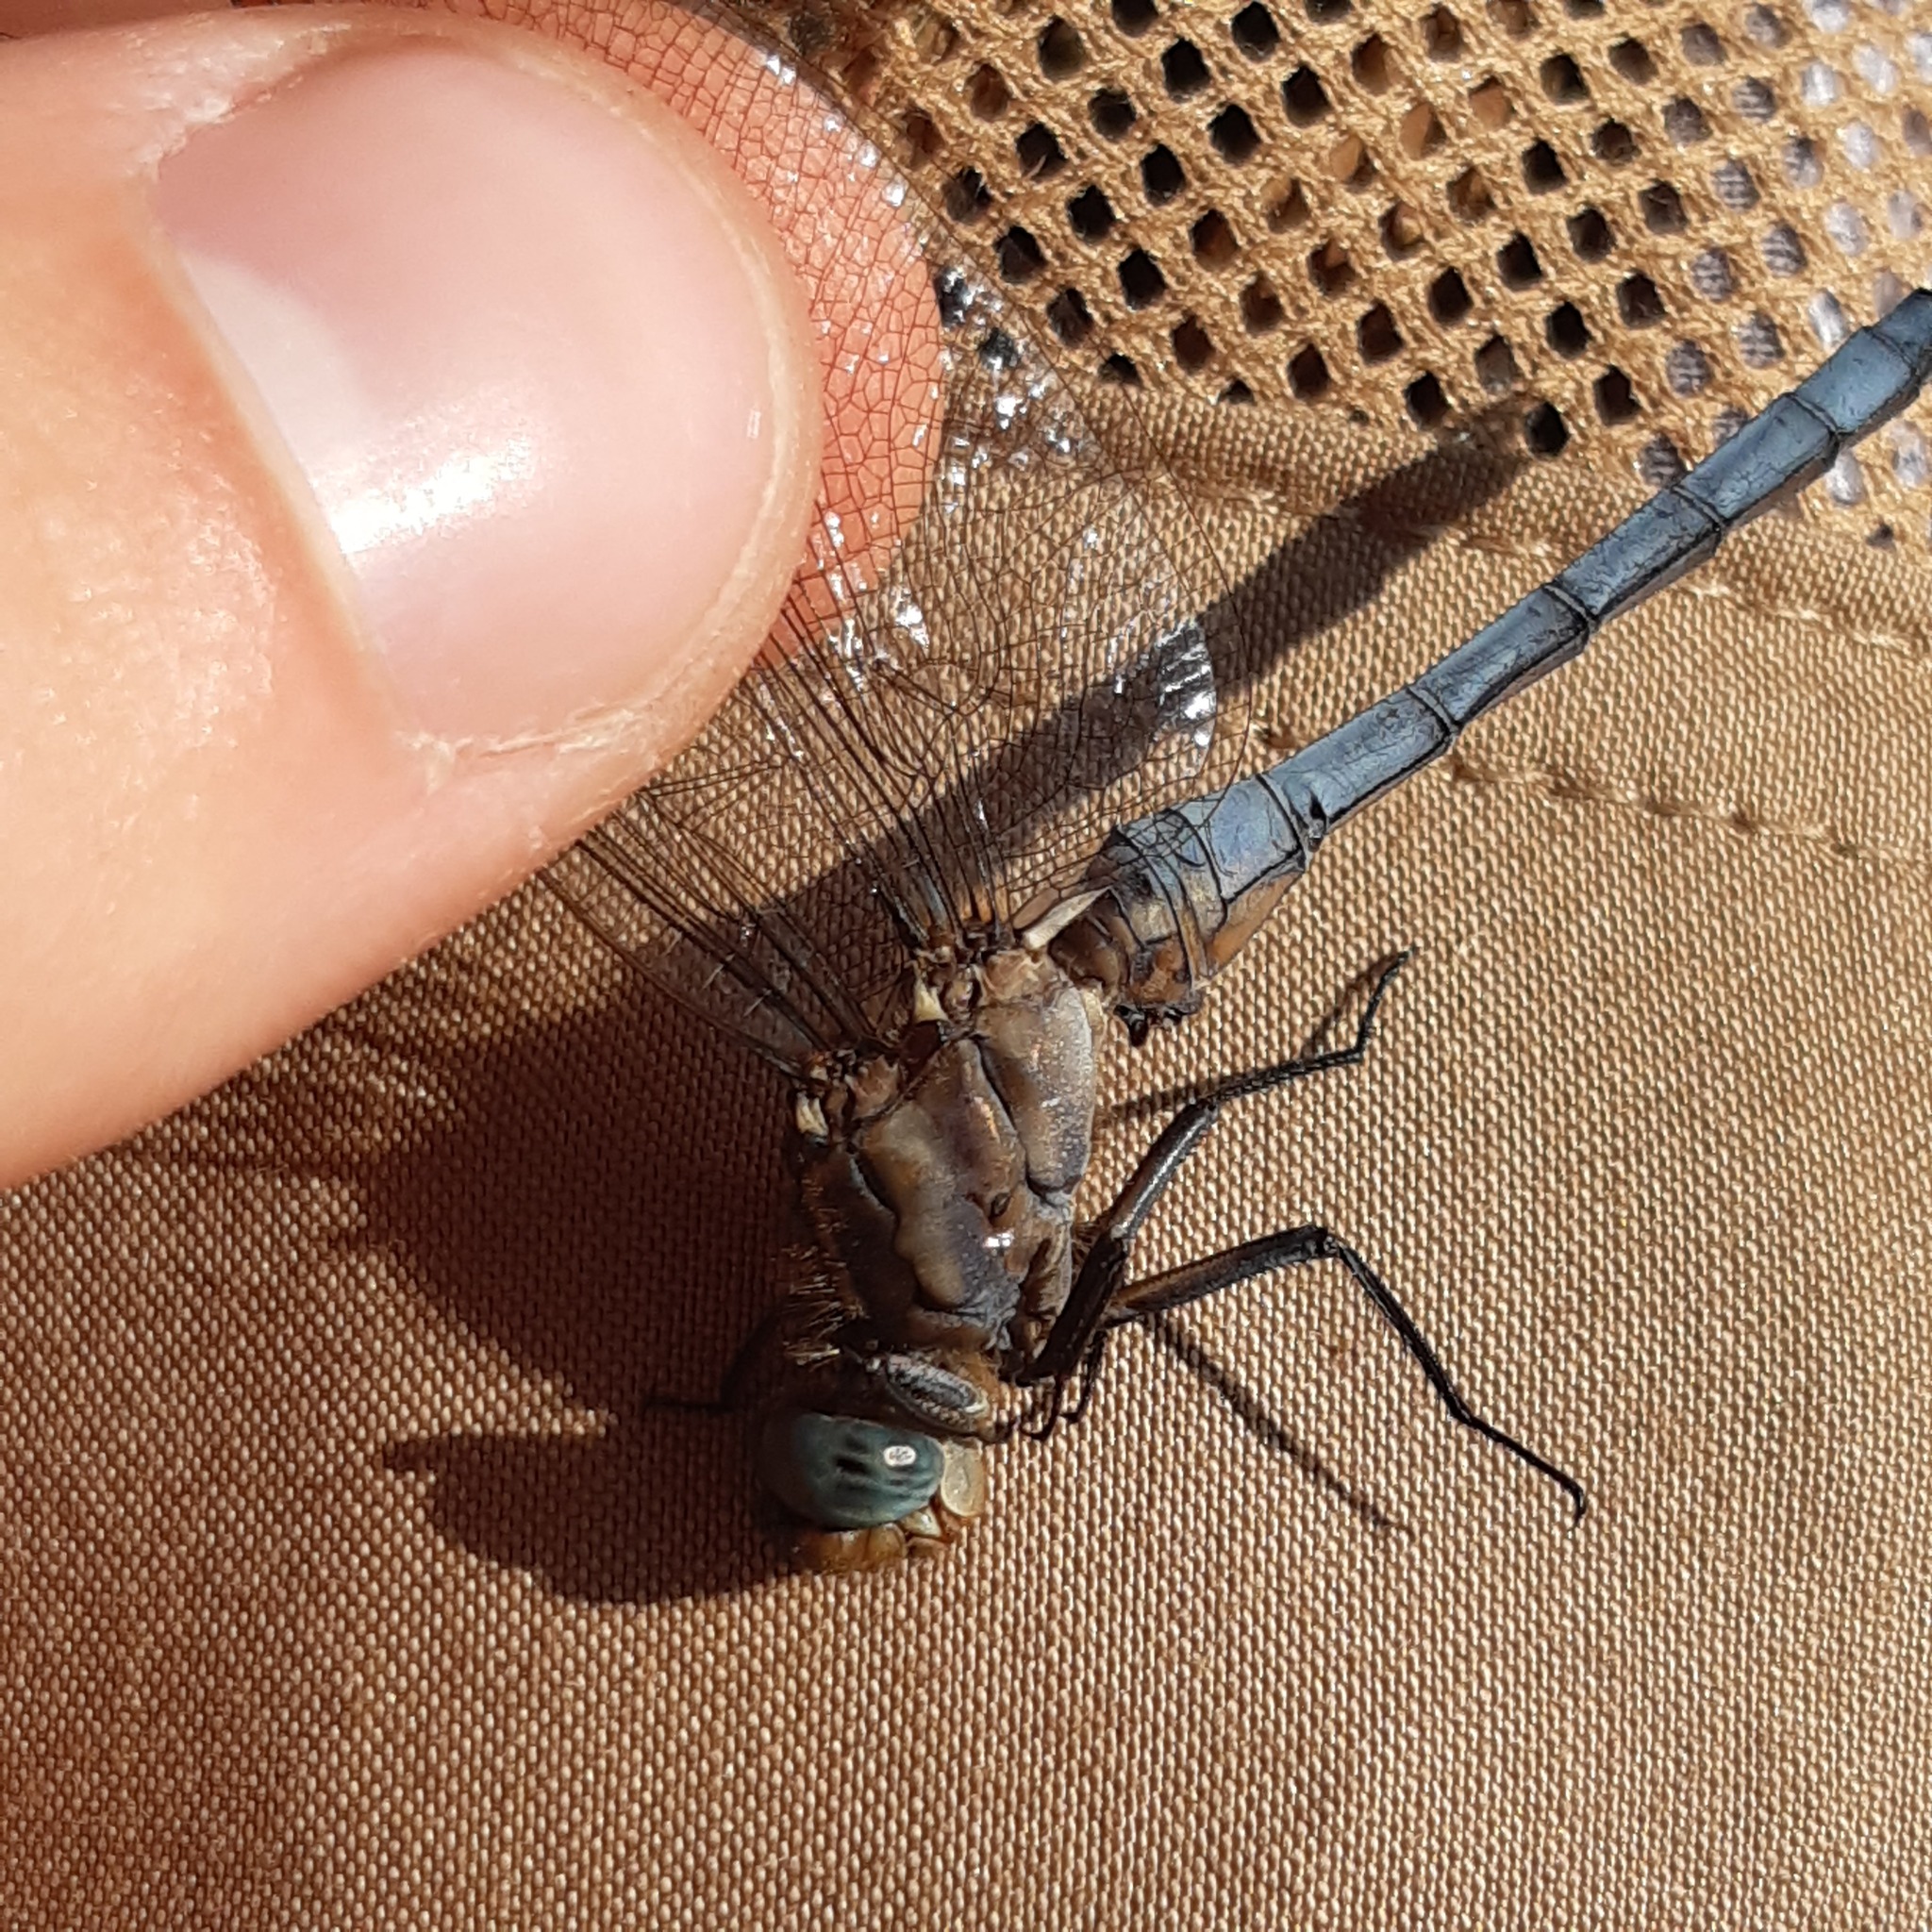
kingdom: Animalia
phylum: Arthropoda
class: Insecta
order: Odonata
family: Libellulidae
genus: Orthetrum
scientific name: Orthetrum coerulescens
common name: Keeled skimmer
